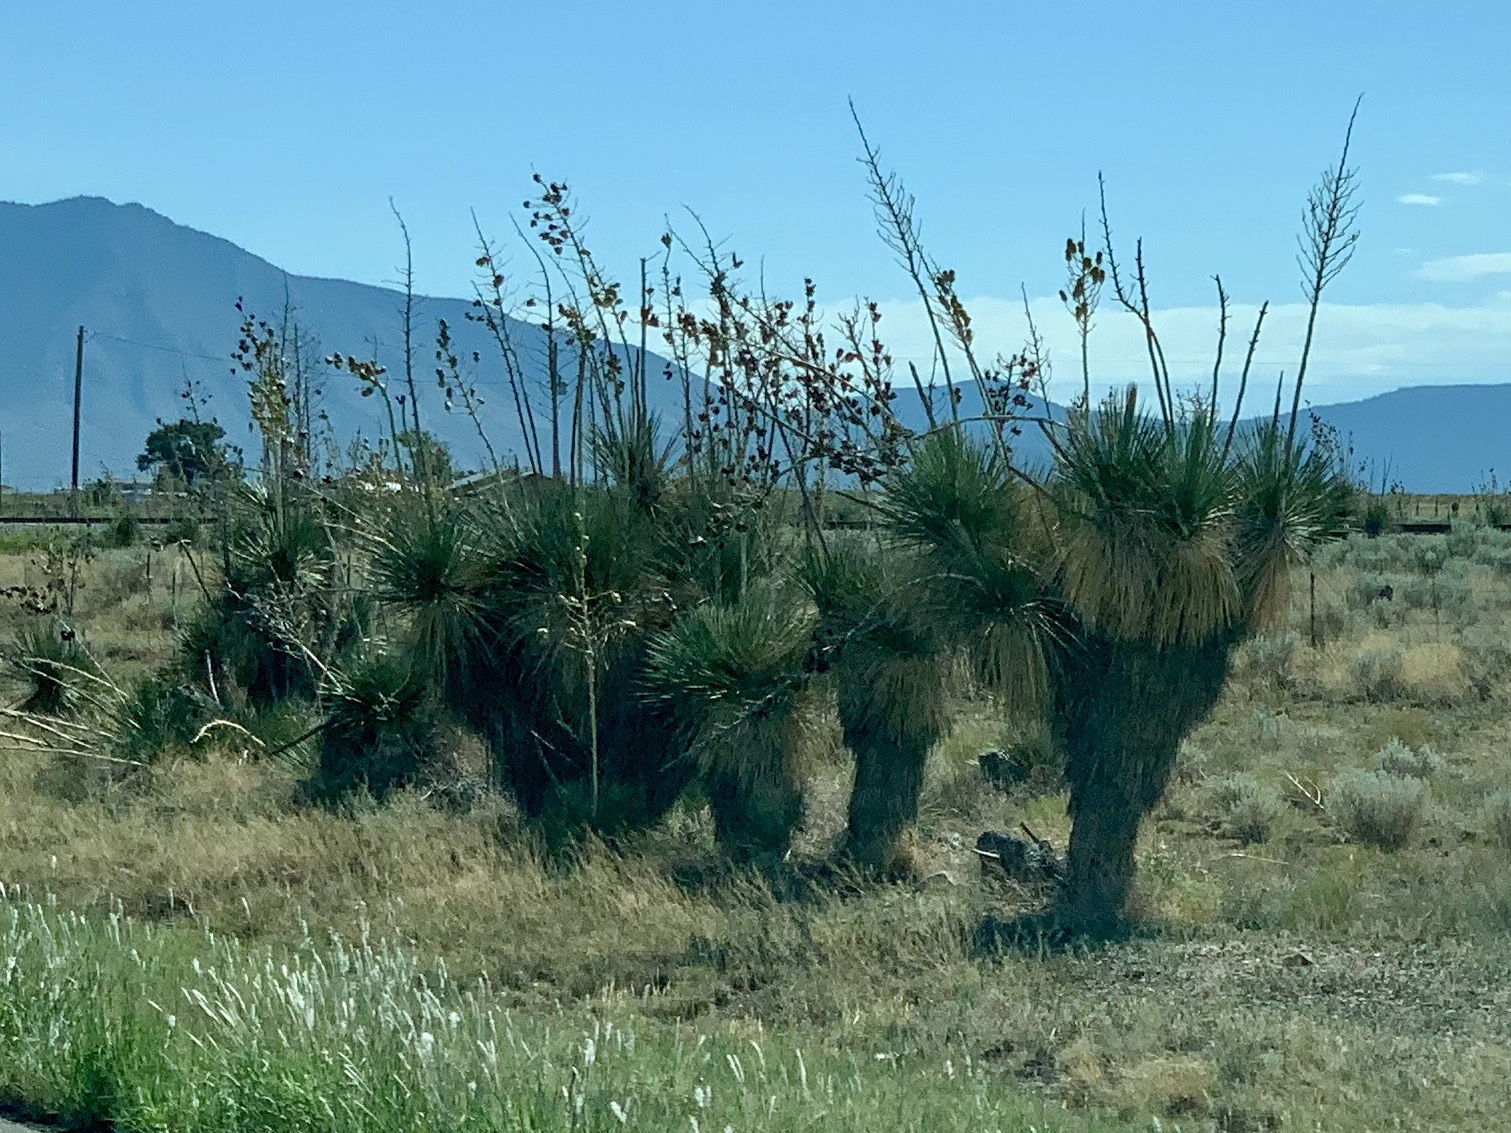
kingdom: Plantae
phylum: Tracheophyta
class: Liliopsida
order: Asparagales
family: Asparagaceae
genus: Yucca
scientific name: Yucca elata
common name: Palmella
